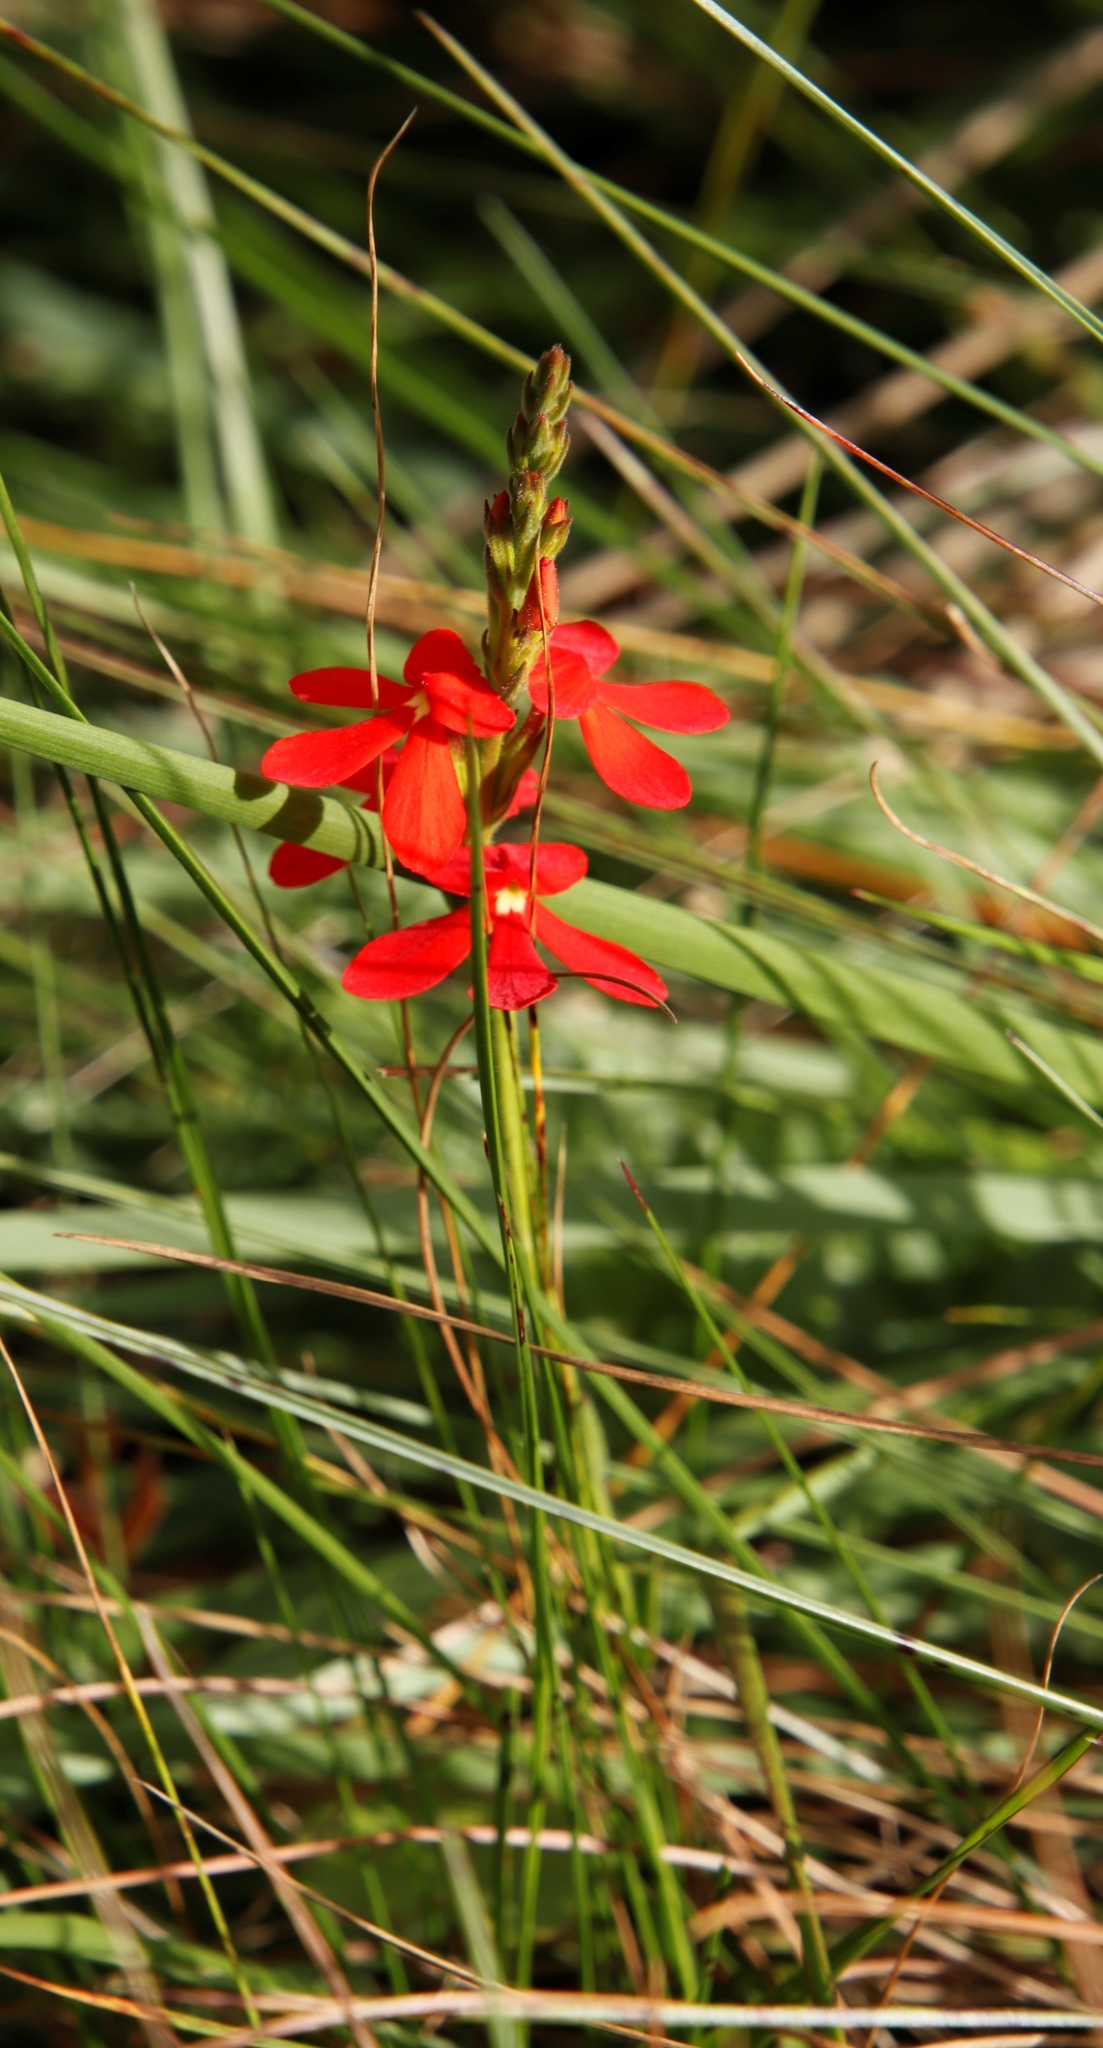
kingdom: Plantae
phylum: Tracheophyta
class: Magnoliopsida
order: Lamiales
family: Orobanchaceae
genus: Striga
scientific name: Striga elegans
